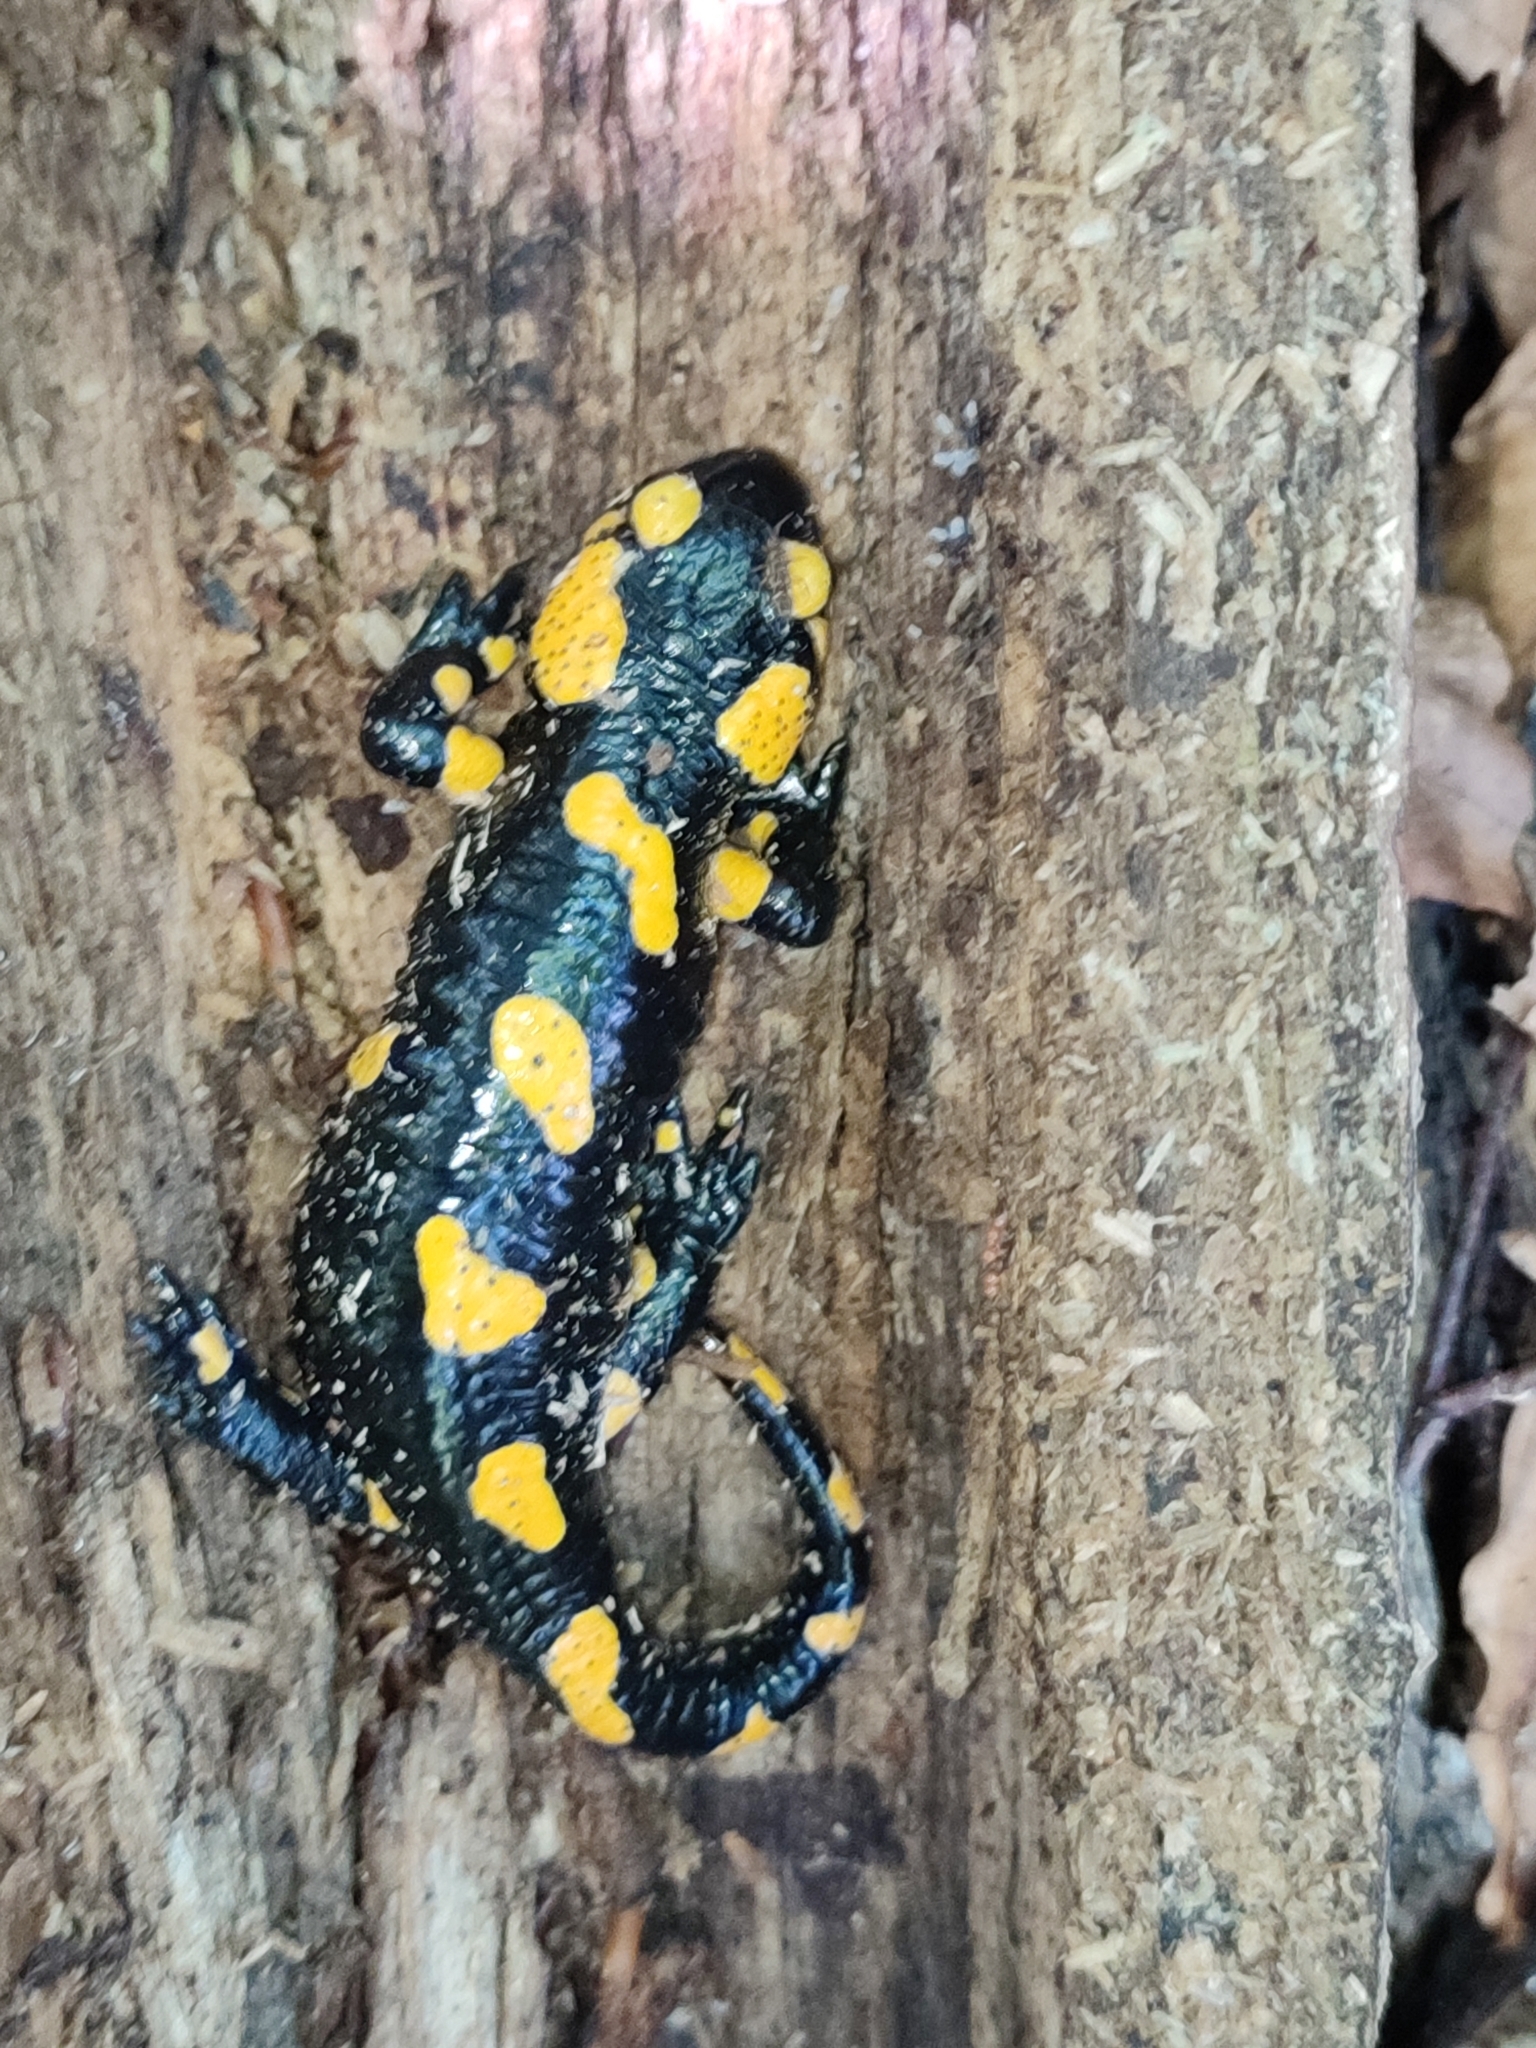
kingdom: Animalia
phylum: Chordata
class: Amphibia
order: Caudata
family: Salamandridae
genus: Salamandra
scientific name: Salamandra salamandra
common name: Fire salamander
